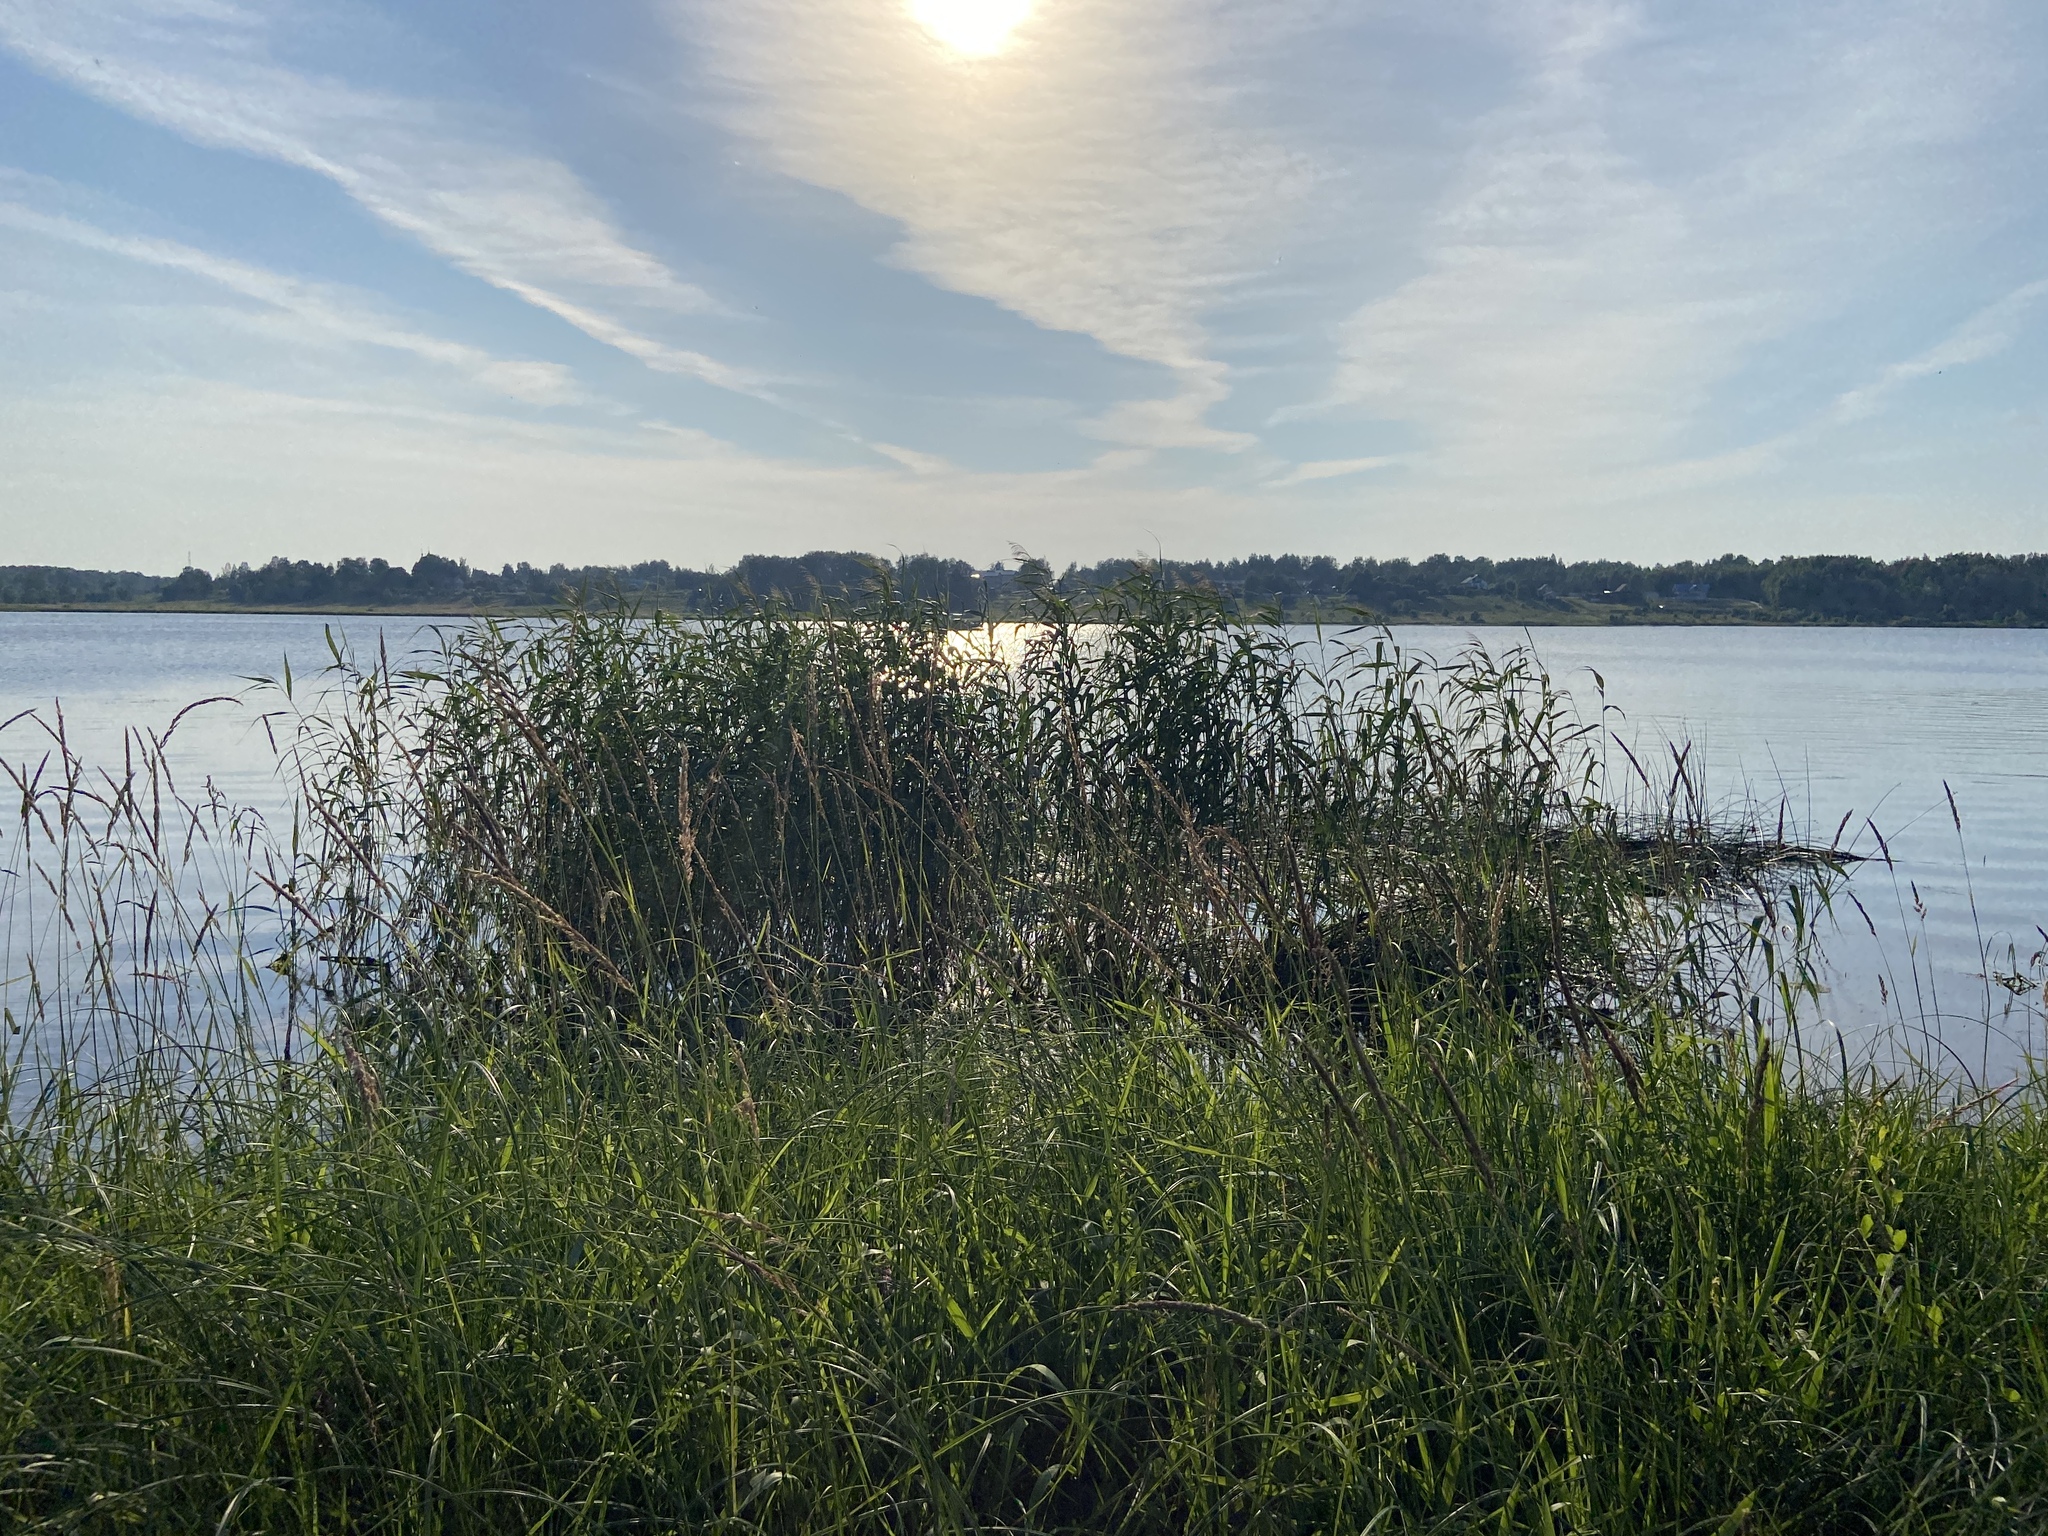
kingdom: Plantae
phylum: Tracheophyta
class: Liliopsida
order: Poales
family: Poaceae
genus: Phragmites
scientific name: Phragmites australis
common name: Common reed
